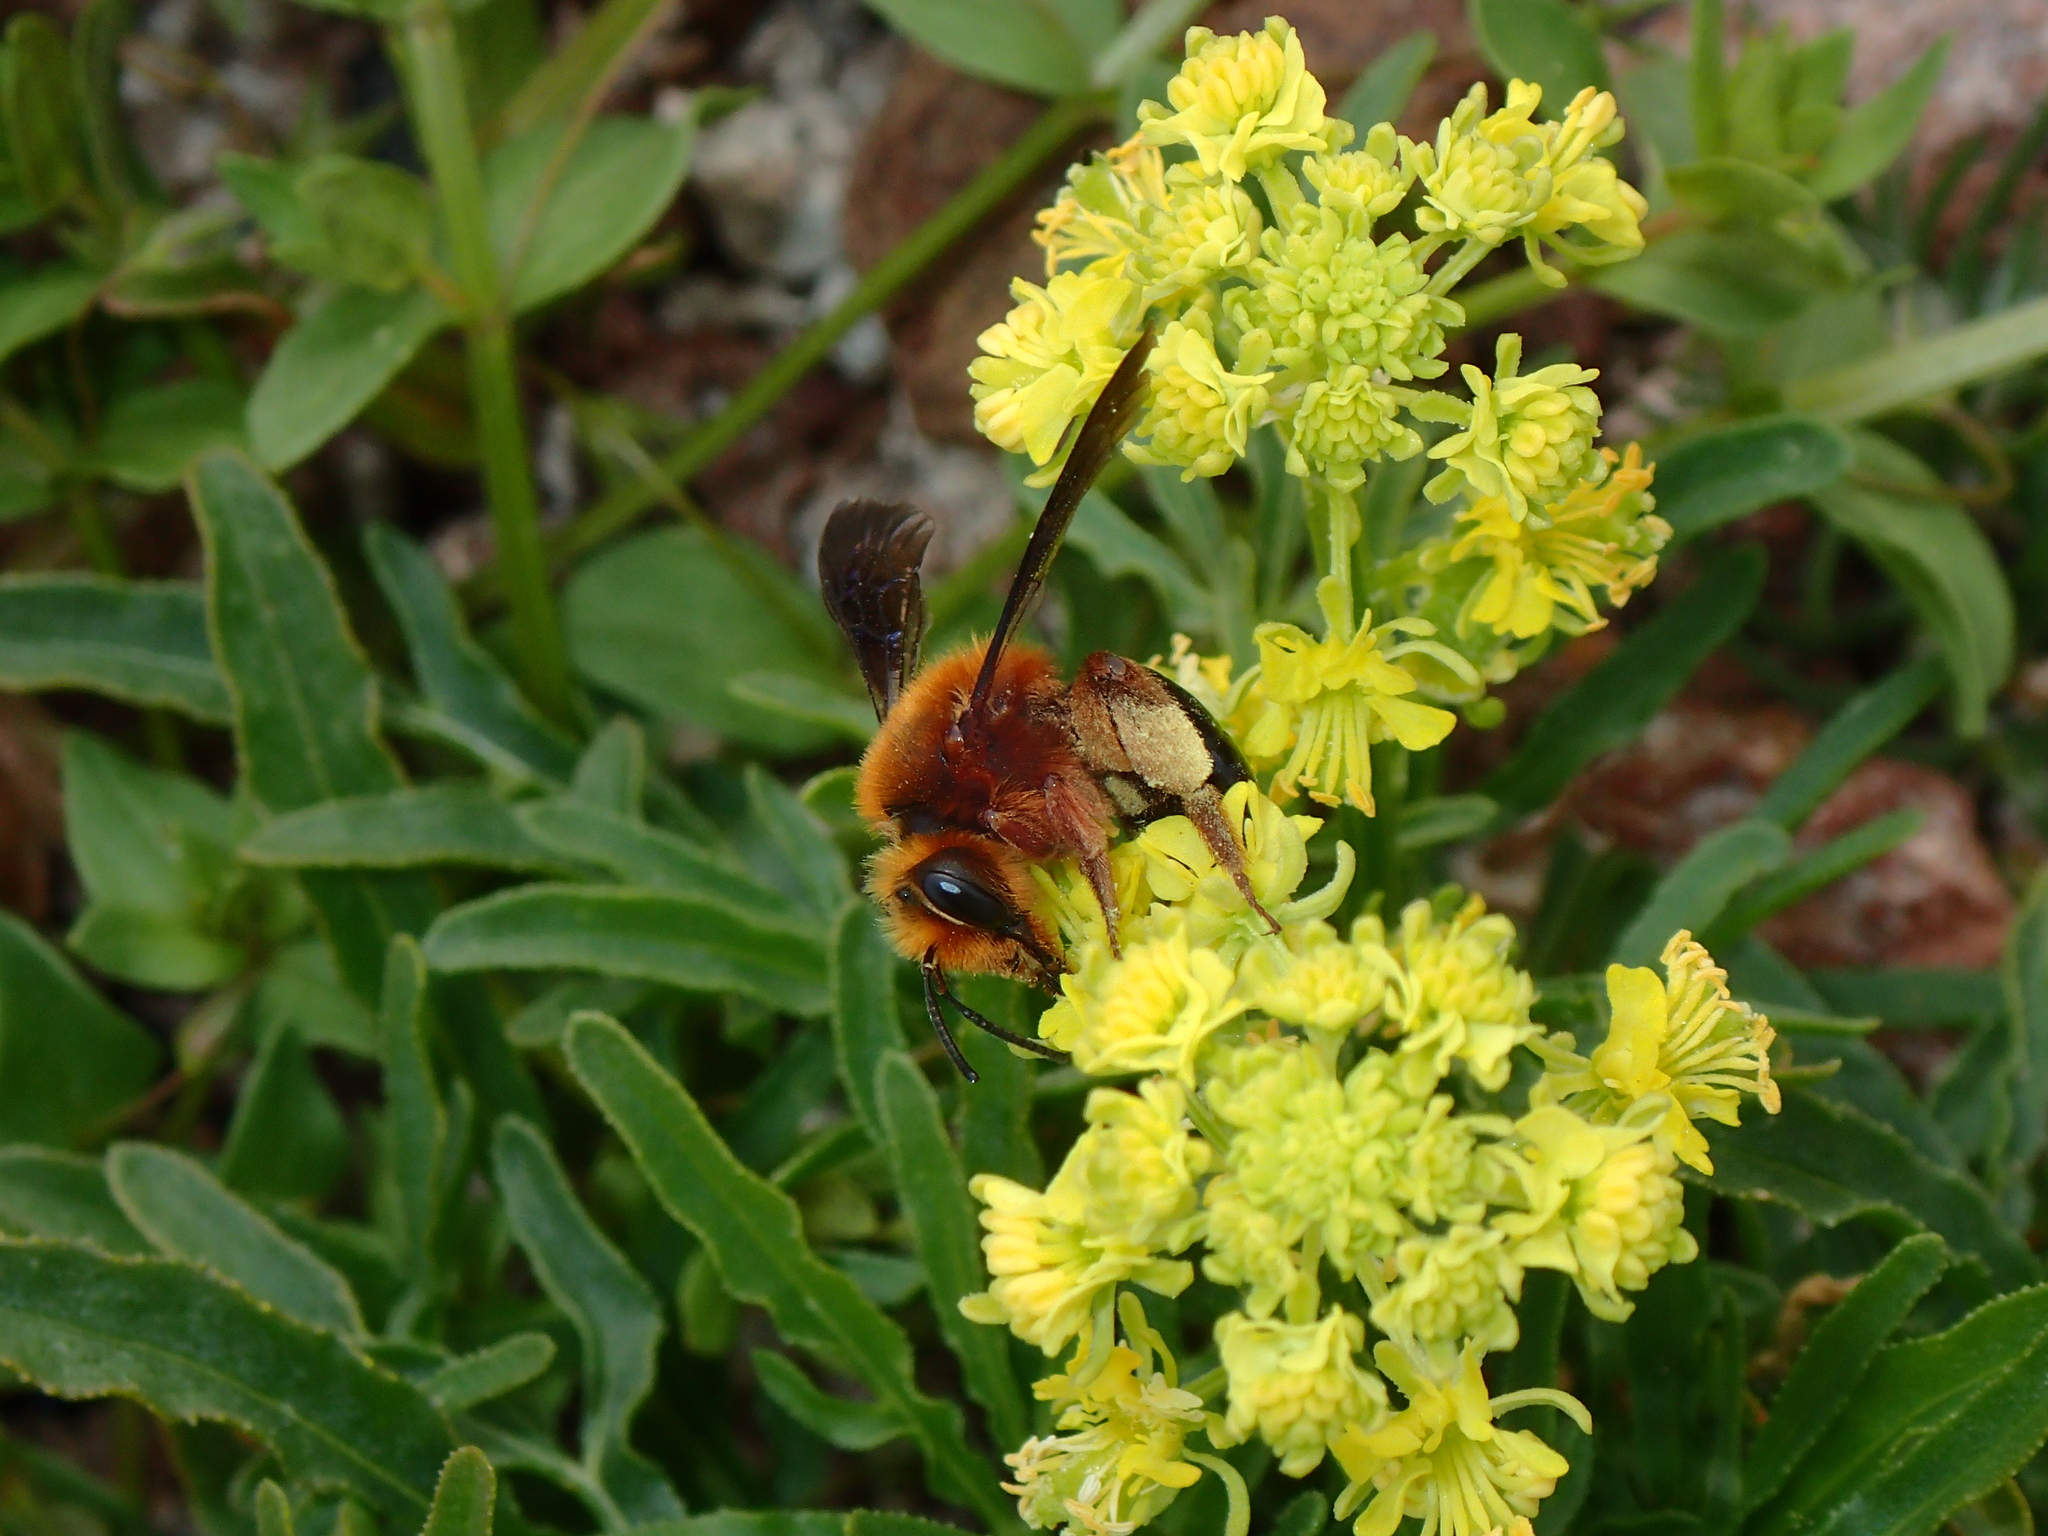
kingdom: Animalia
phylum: Arthropoda
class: Insecta
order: Hymenoptera
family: Andrenidae
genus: Andrena
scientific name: Andrena fuscosa
